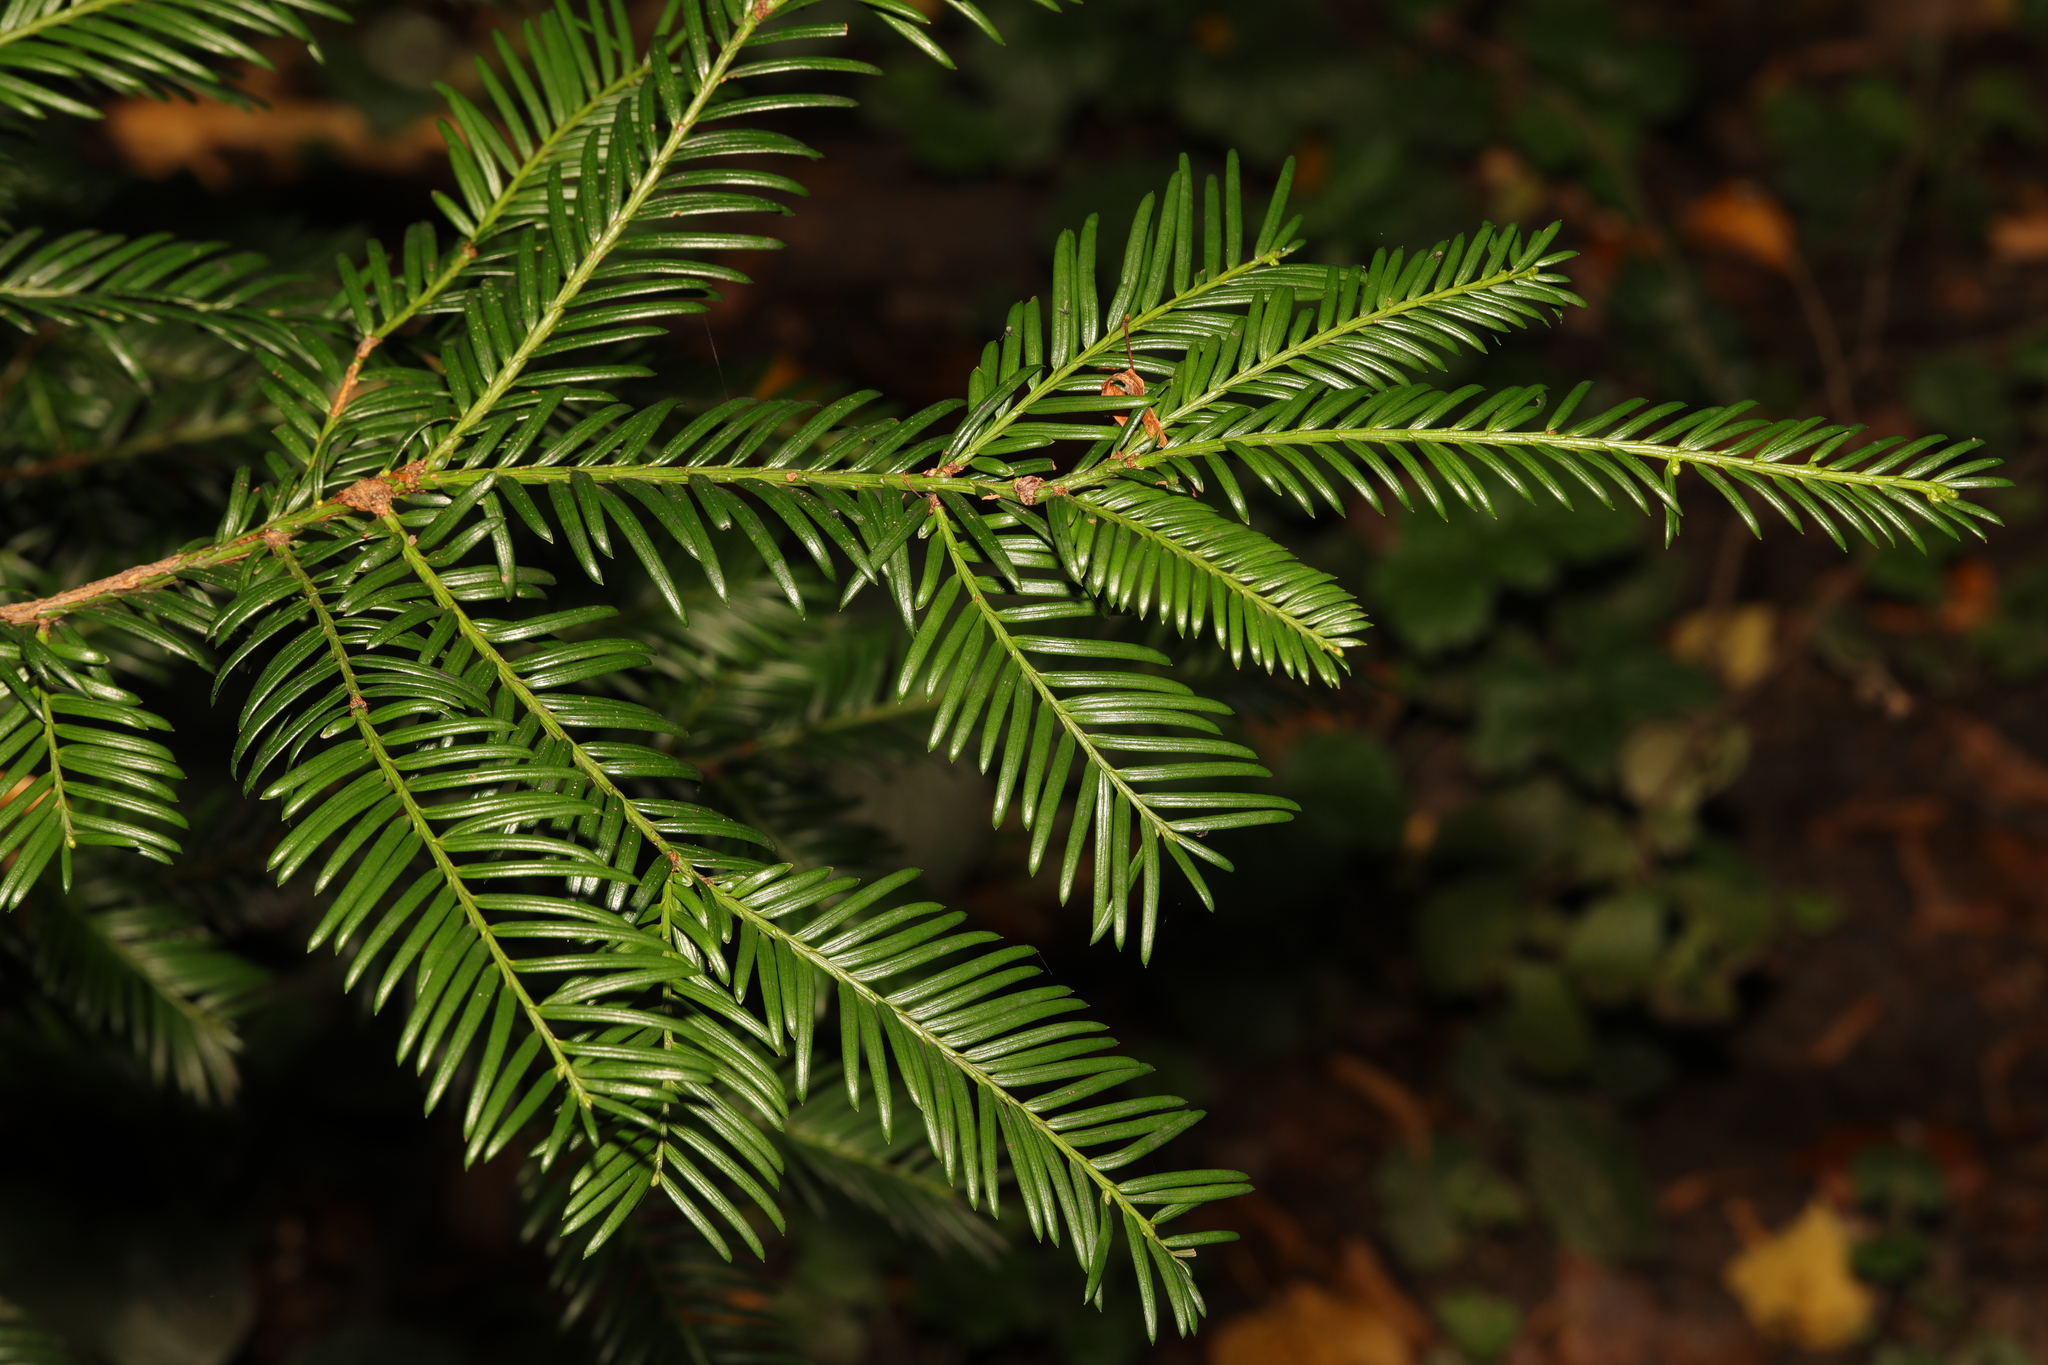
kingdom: Plantae
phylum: Tracheophyta
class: Pinopsida
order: Pinales
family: Taxaceae
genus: Taxus
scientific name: Taxus baccata
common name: Yew
